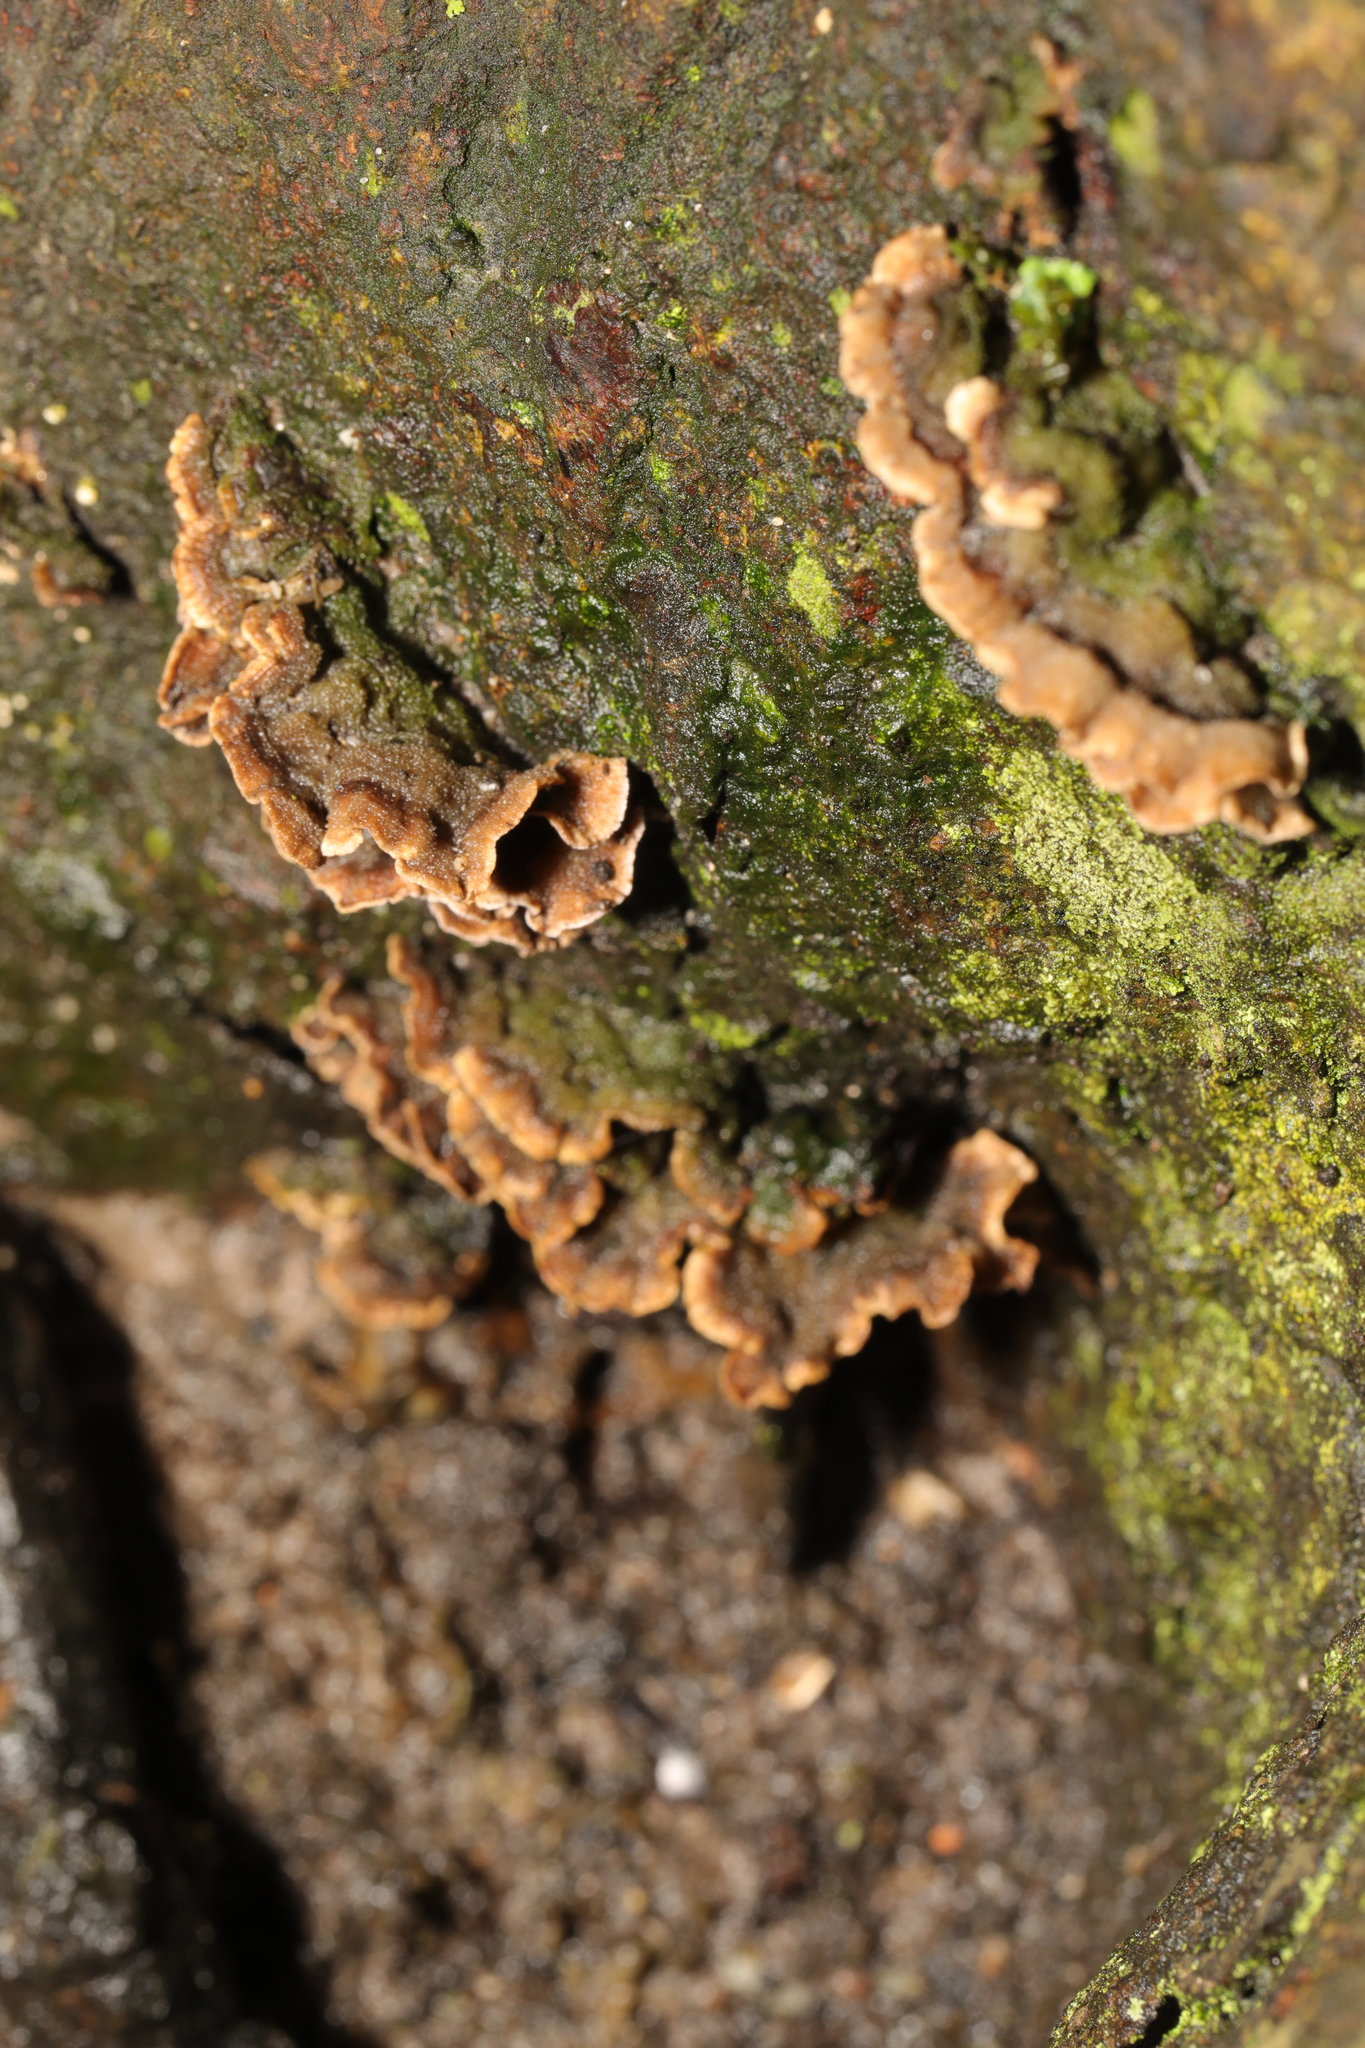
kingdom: Fungi
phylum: Basidiomycota
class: Agaricomycetes
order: Russulales
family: Stereaceae
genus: Stereum
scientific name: Stereum hirsutum
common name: Hairy curtain crust
